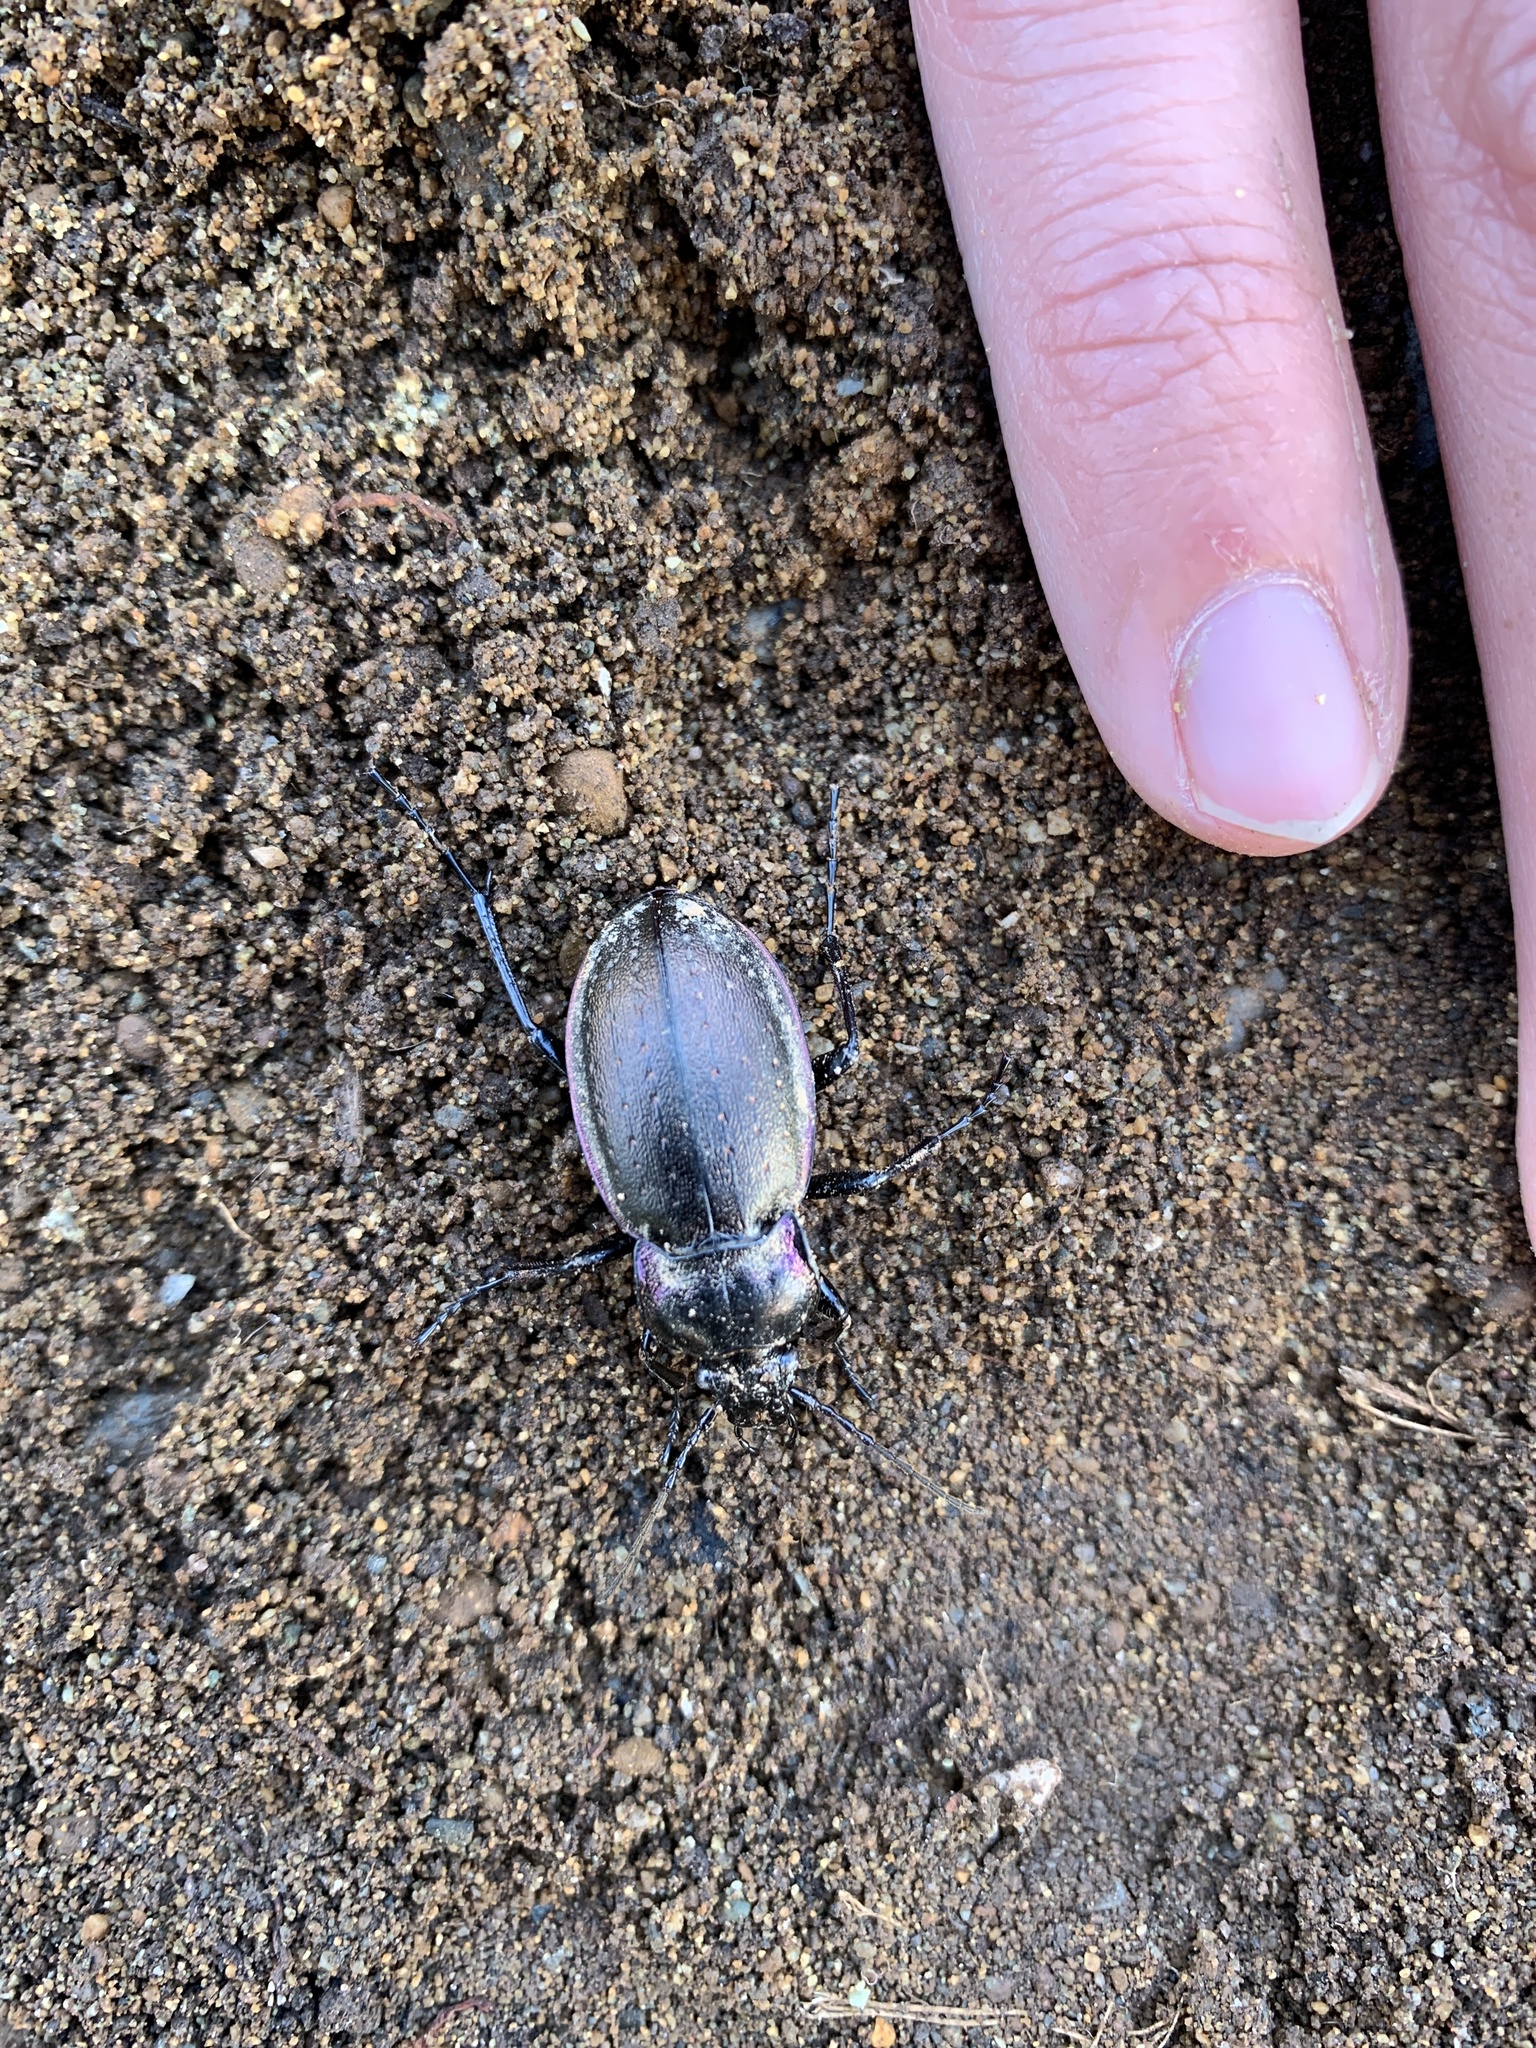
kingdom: Animalia
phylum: Arthropoda
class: Insecta
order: Coleoptera
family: Carabidae
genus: Carabus
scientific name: Carabus nemoralis
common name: European ground beetle
